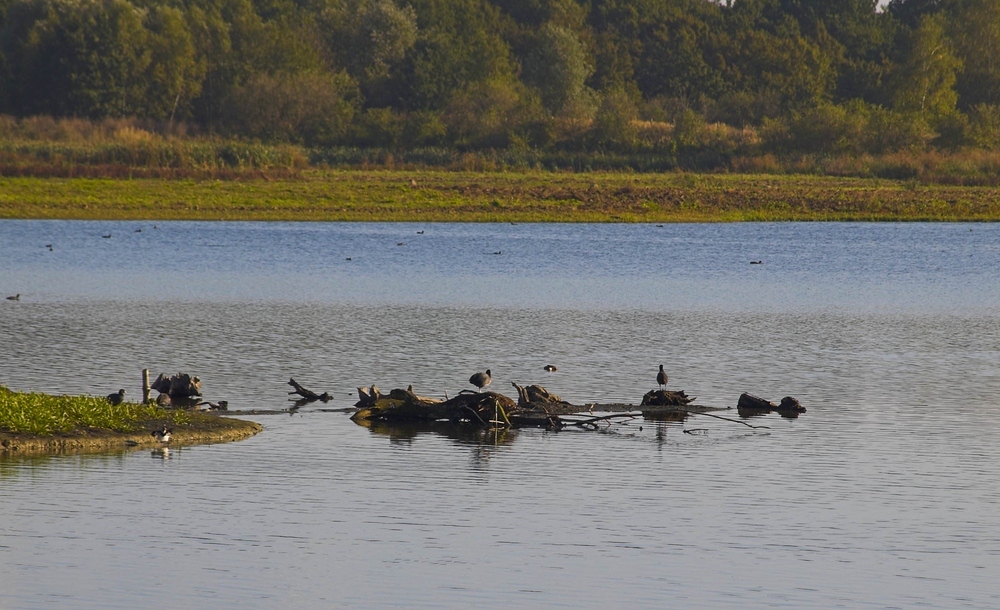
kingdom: Animalia
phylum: Chordata
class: Aves
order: Gruiformes
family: Rallidae
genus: Fulica
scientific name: Fulica atra
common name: Eurasian coot
